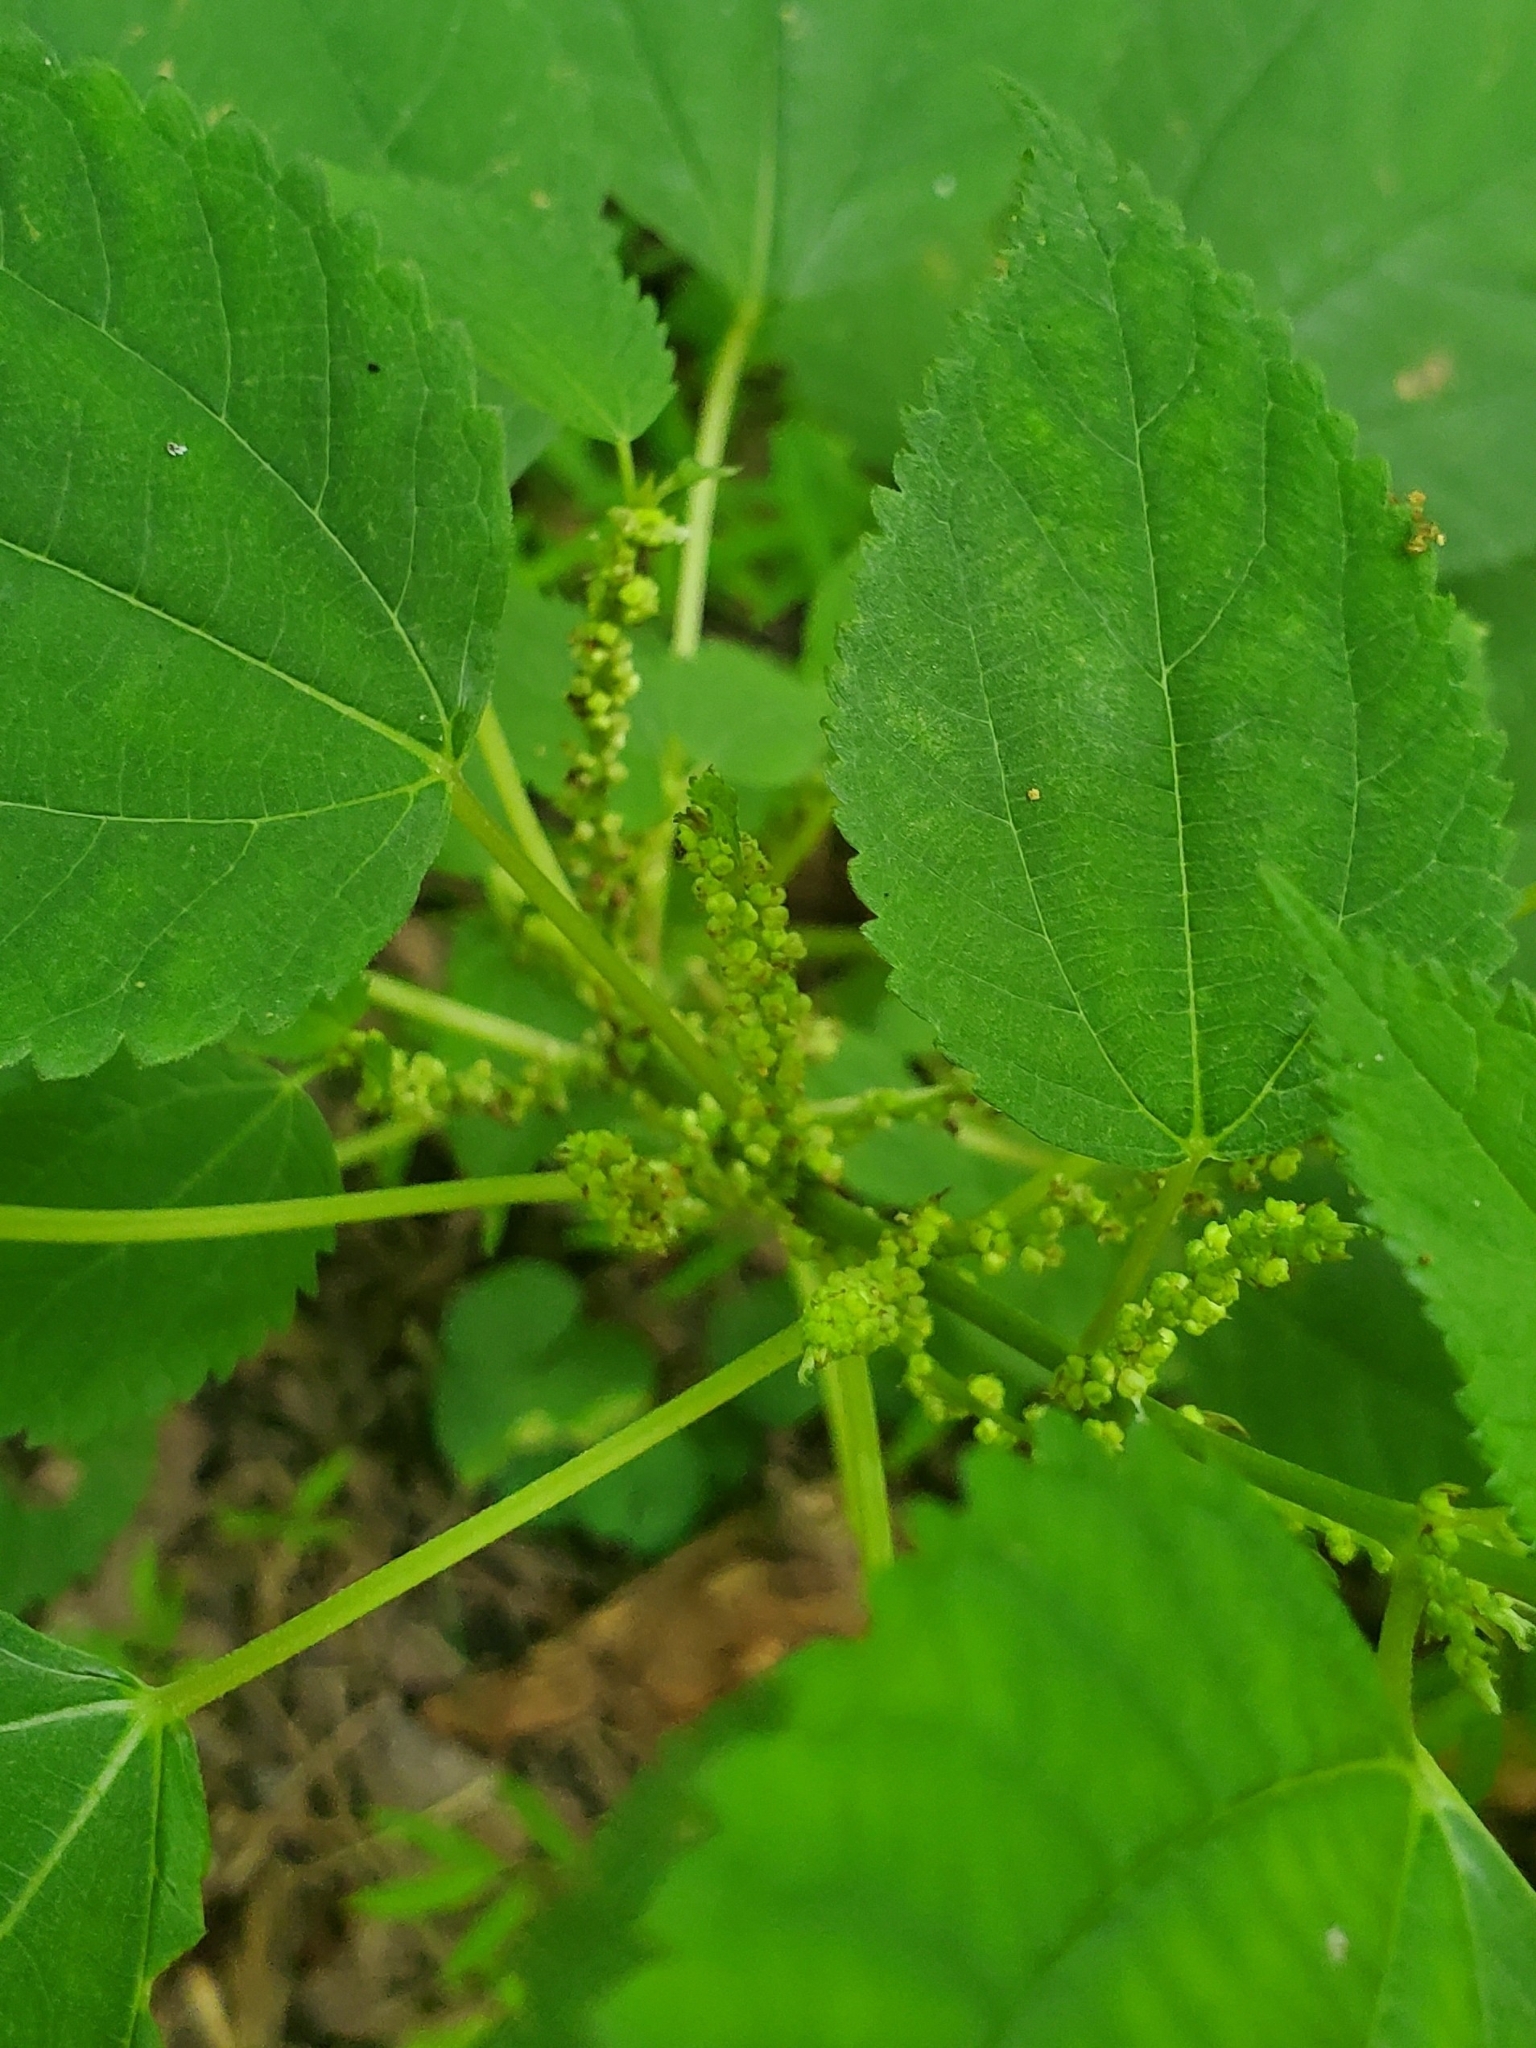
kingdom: Plantae
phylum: Tracheophyta
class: Magnoliopsida
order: Rosales
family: Urticaceae
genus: Boehmeria
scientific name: Boehmeria cylindrica
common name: Bog-hemp
